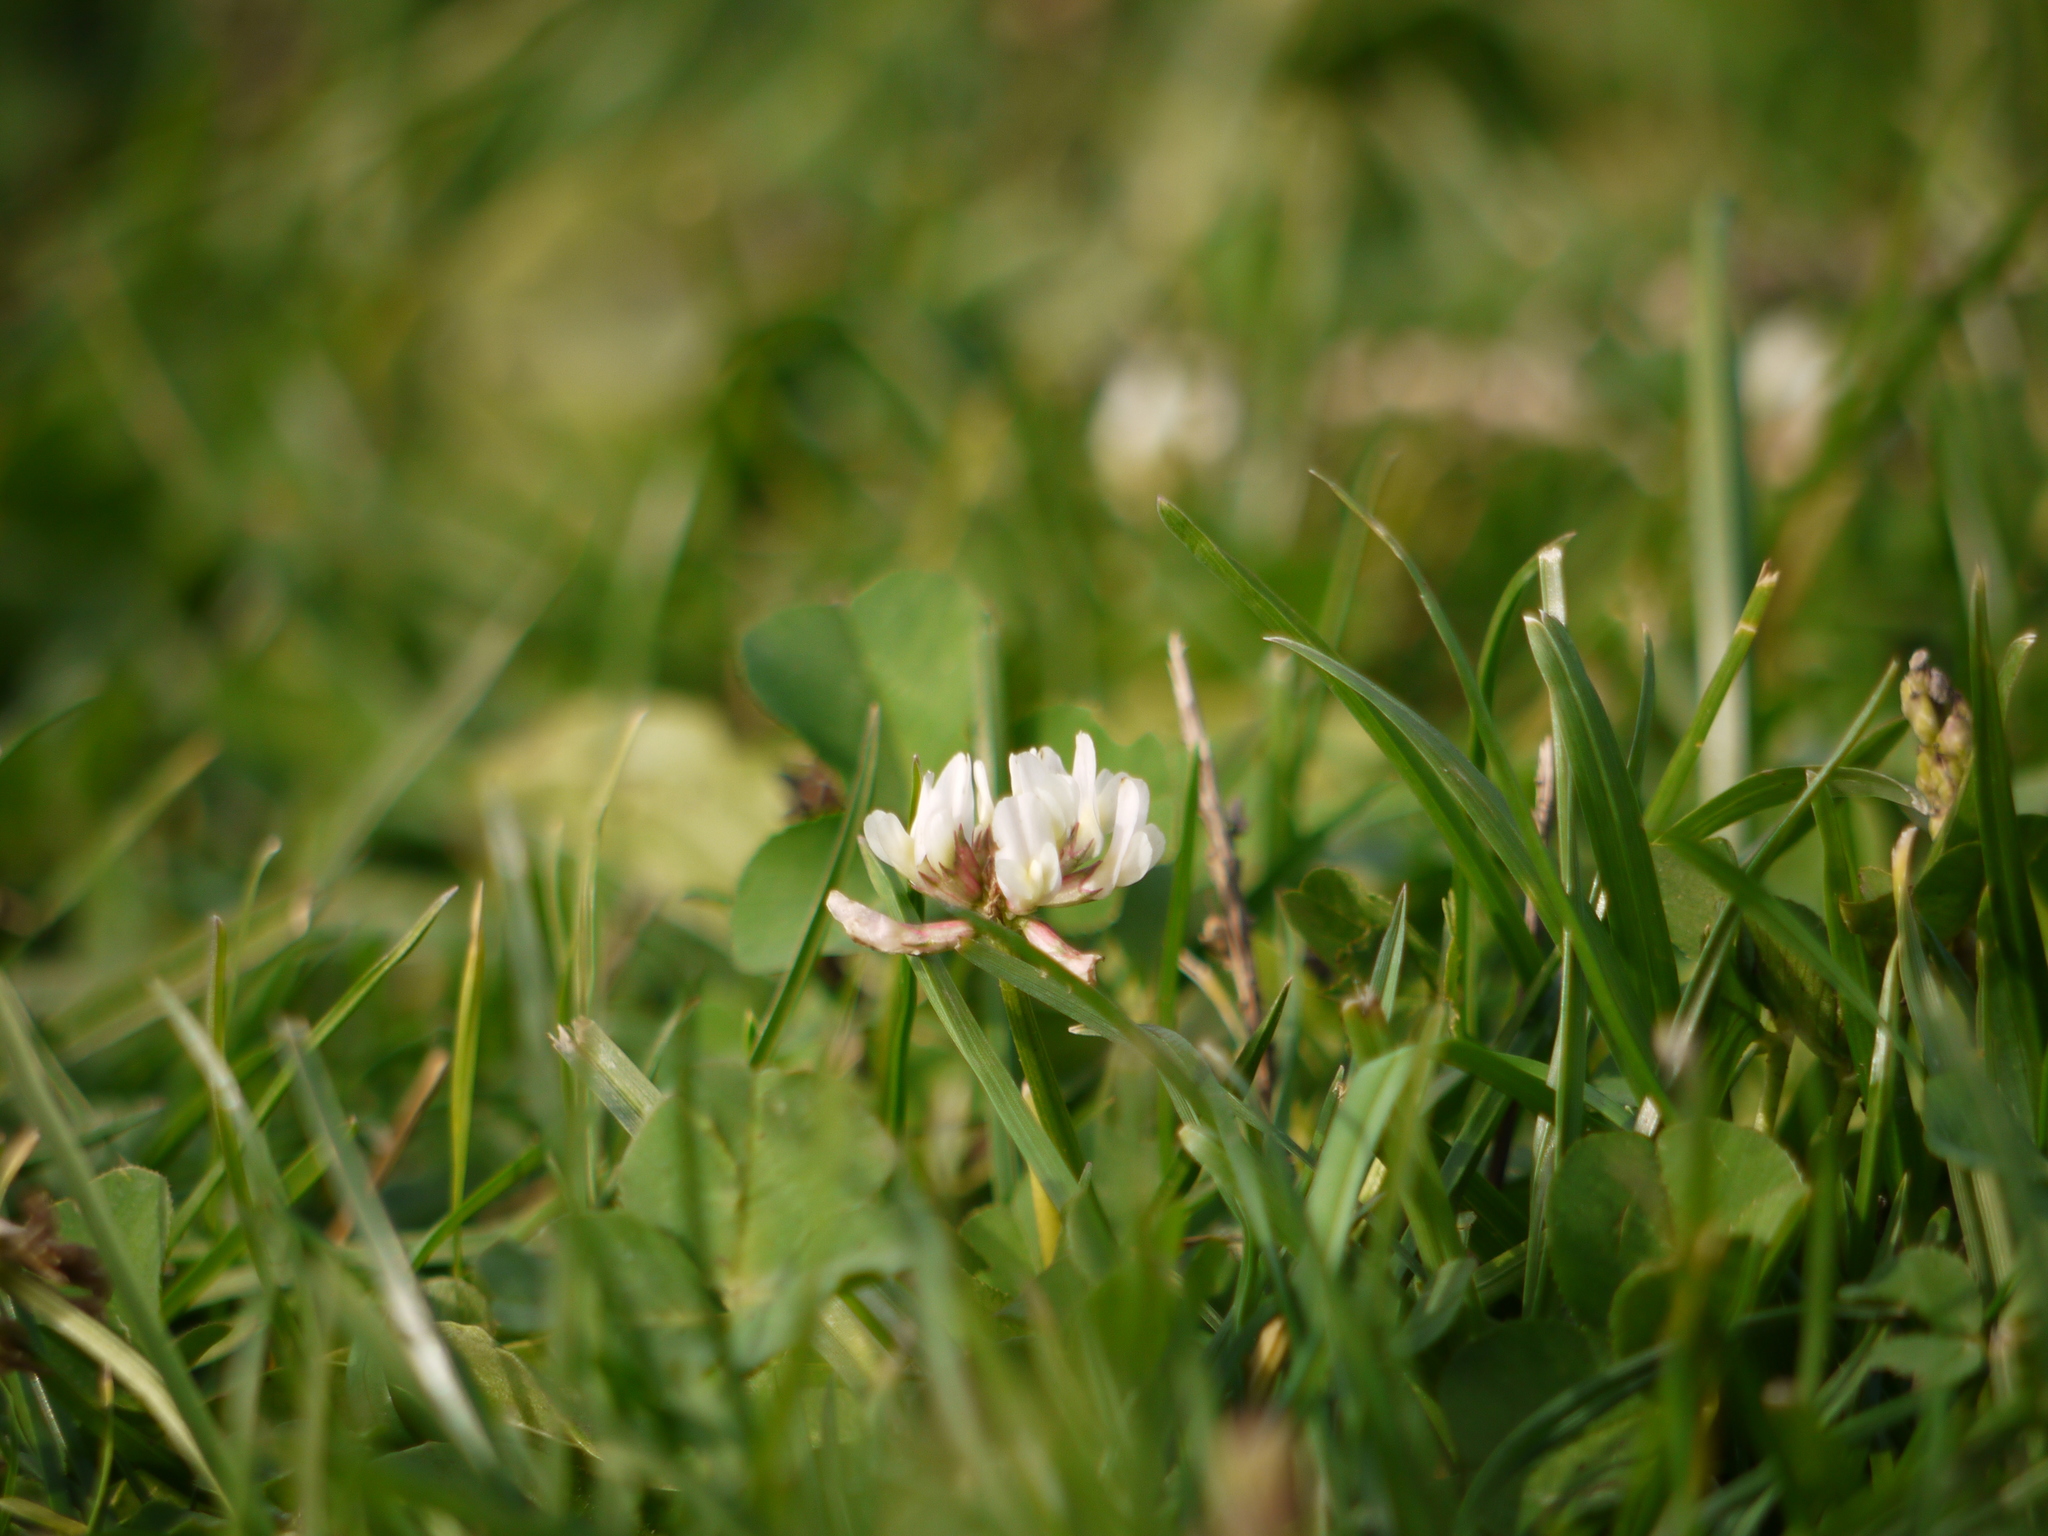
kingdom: Plantae
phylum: Tracheophyta
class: Magnoliopsida
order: Fabales
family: Fabaceae
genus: Trifolium
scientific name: Trifolium repens
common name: White clover
